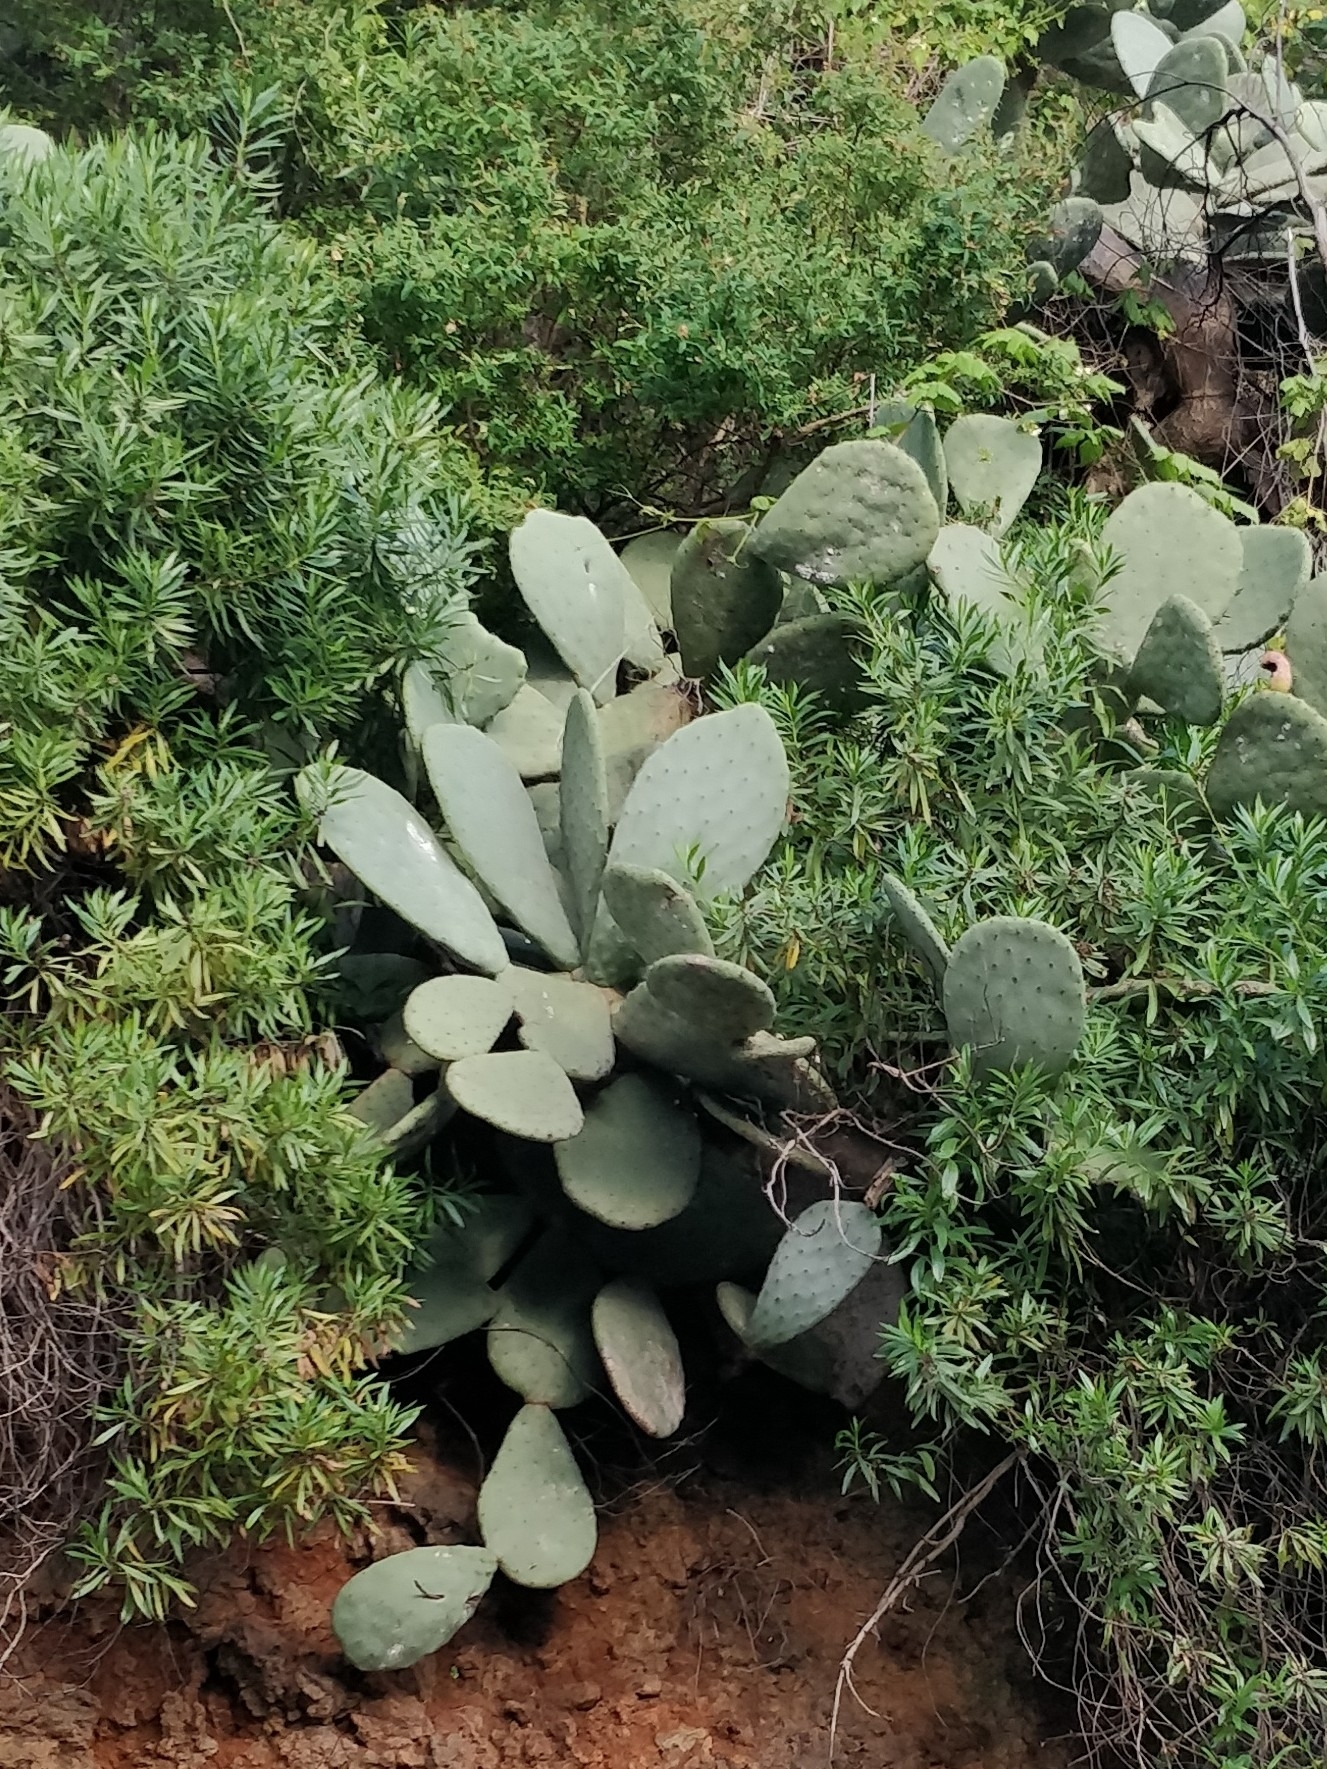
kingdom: Plantae
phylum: Tracheophyta
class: Magnoliopsida
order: Caryophyllales
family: Cactaceae
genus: Opuntia
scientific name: Opuntia ficus-indica
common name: Barbary fig
